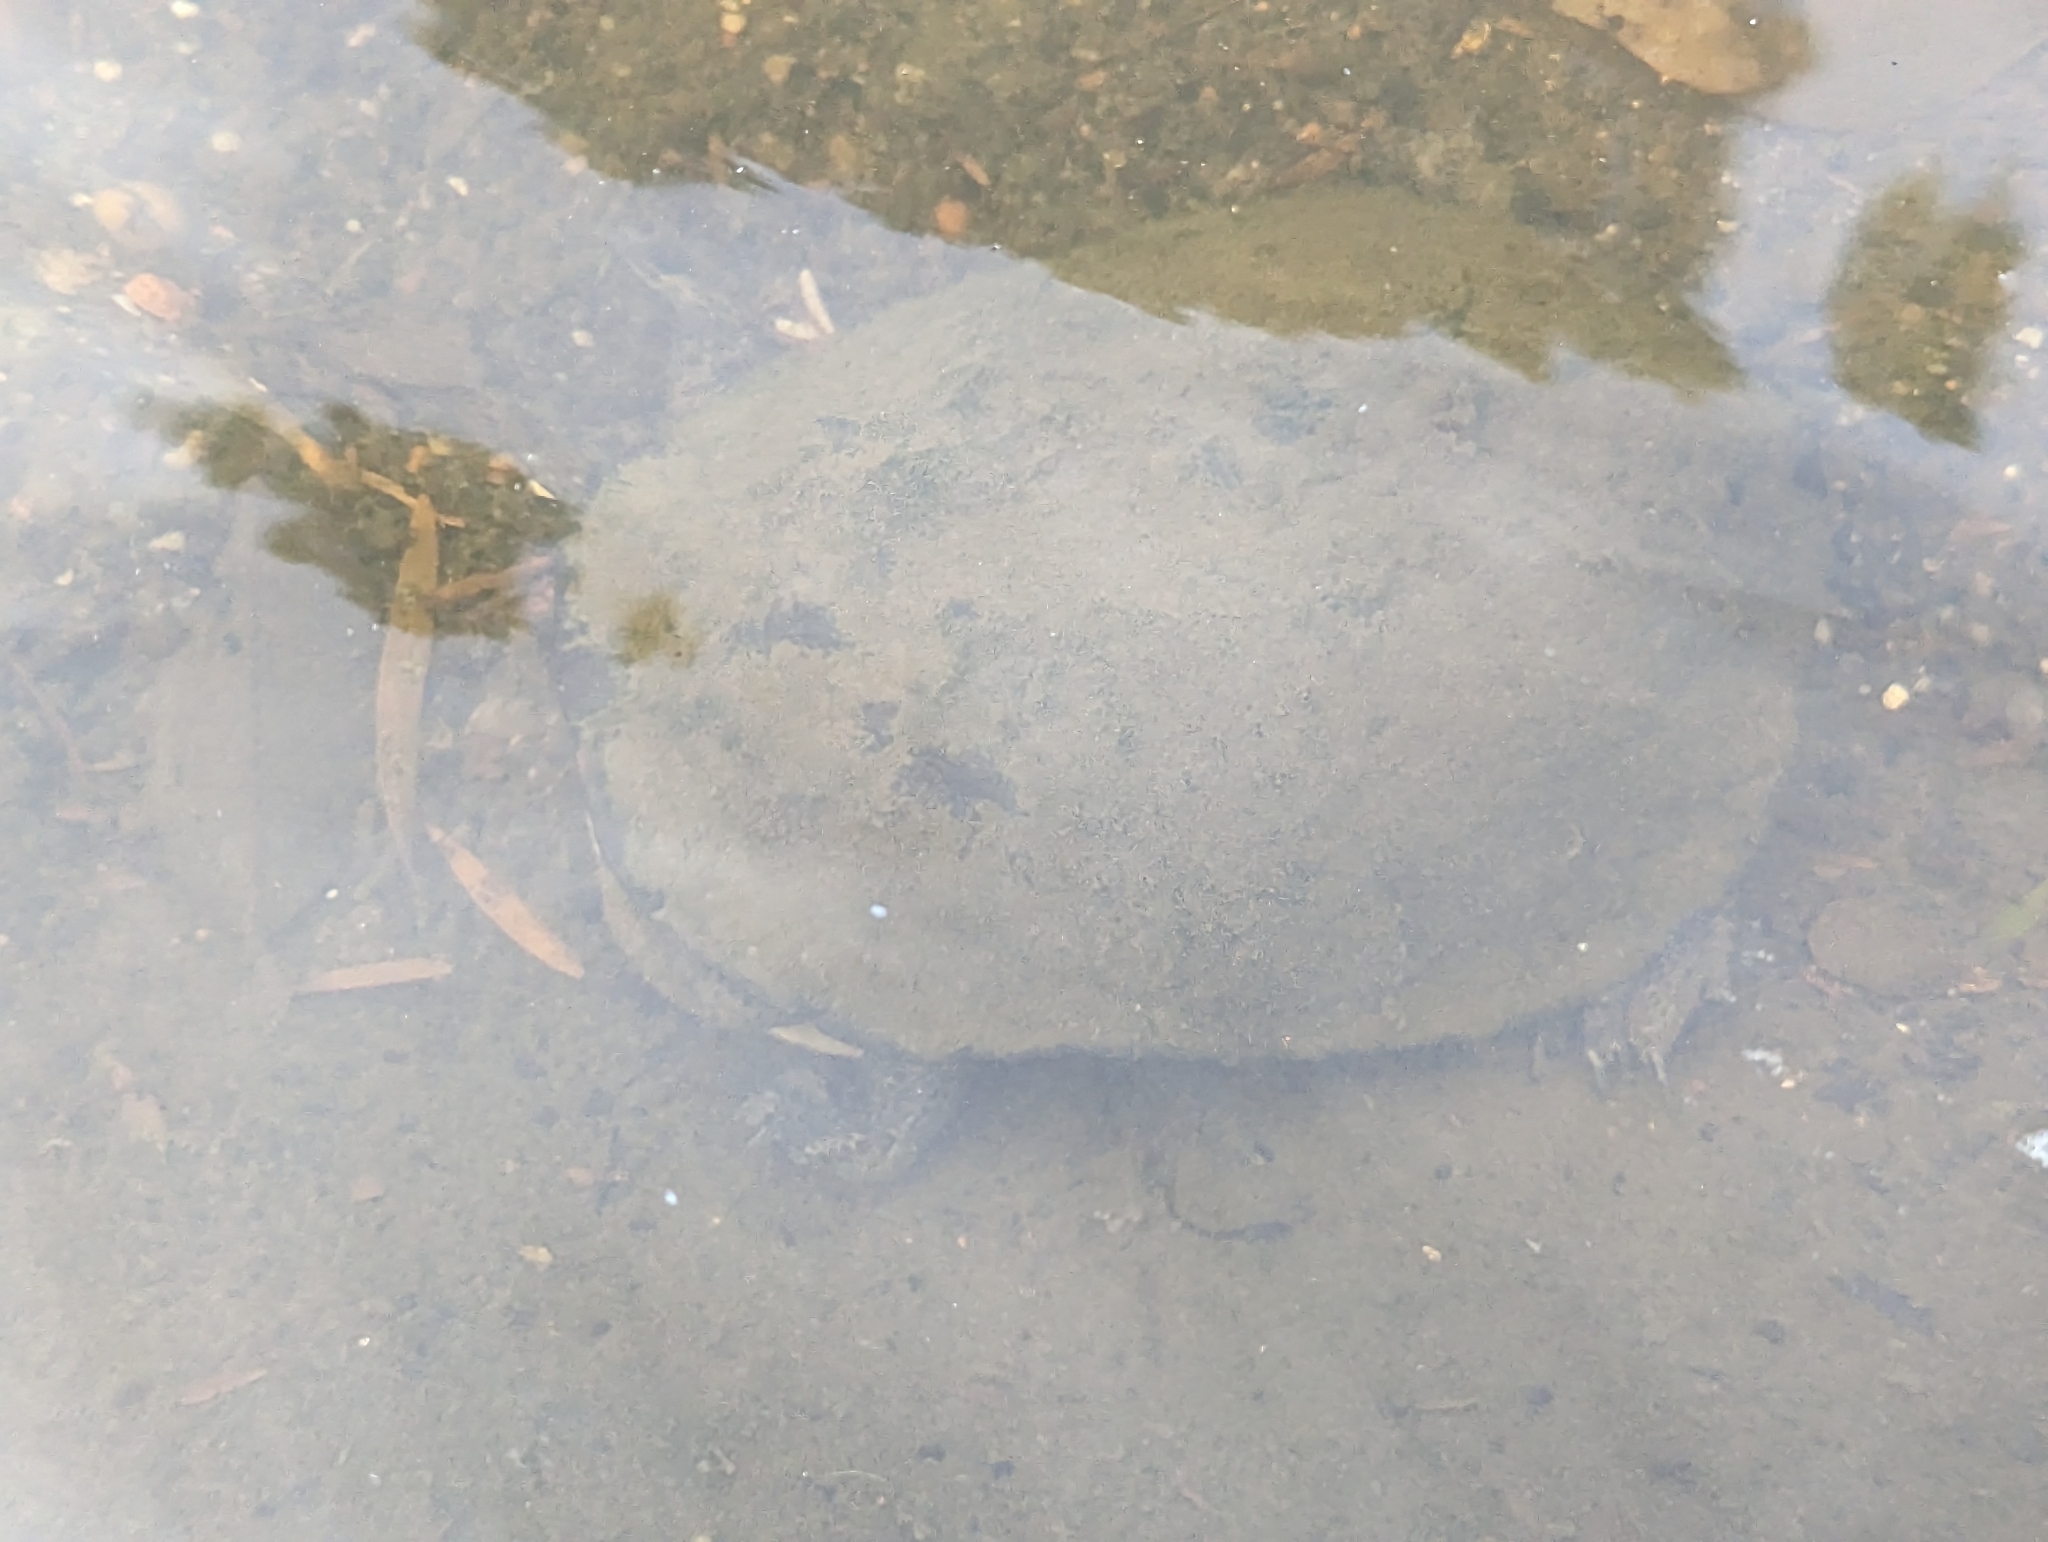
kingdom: Animalia
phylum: Chordata
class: Testudines
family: Chelidae
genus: Chelodina
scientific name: Chelodina longicollis
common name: Eastern snake-necked turtle
